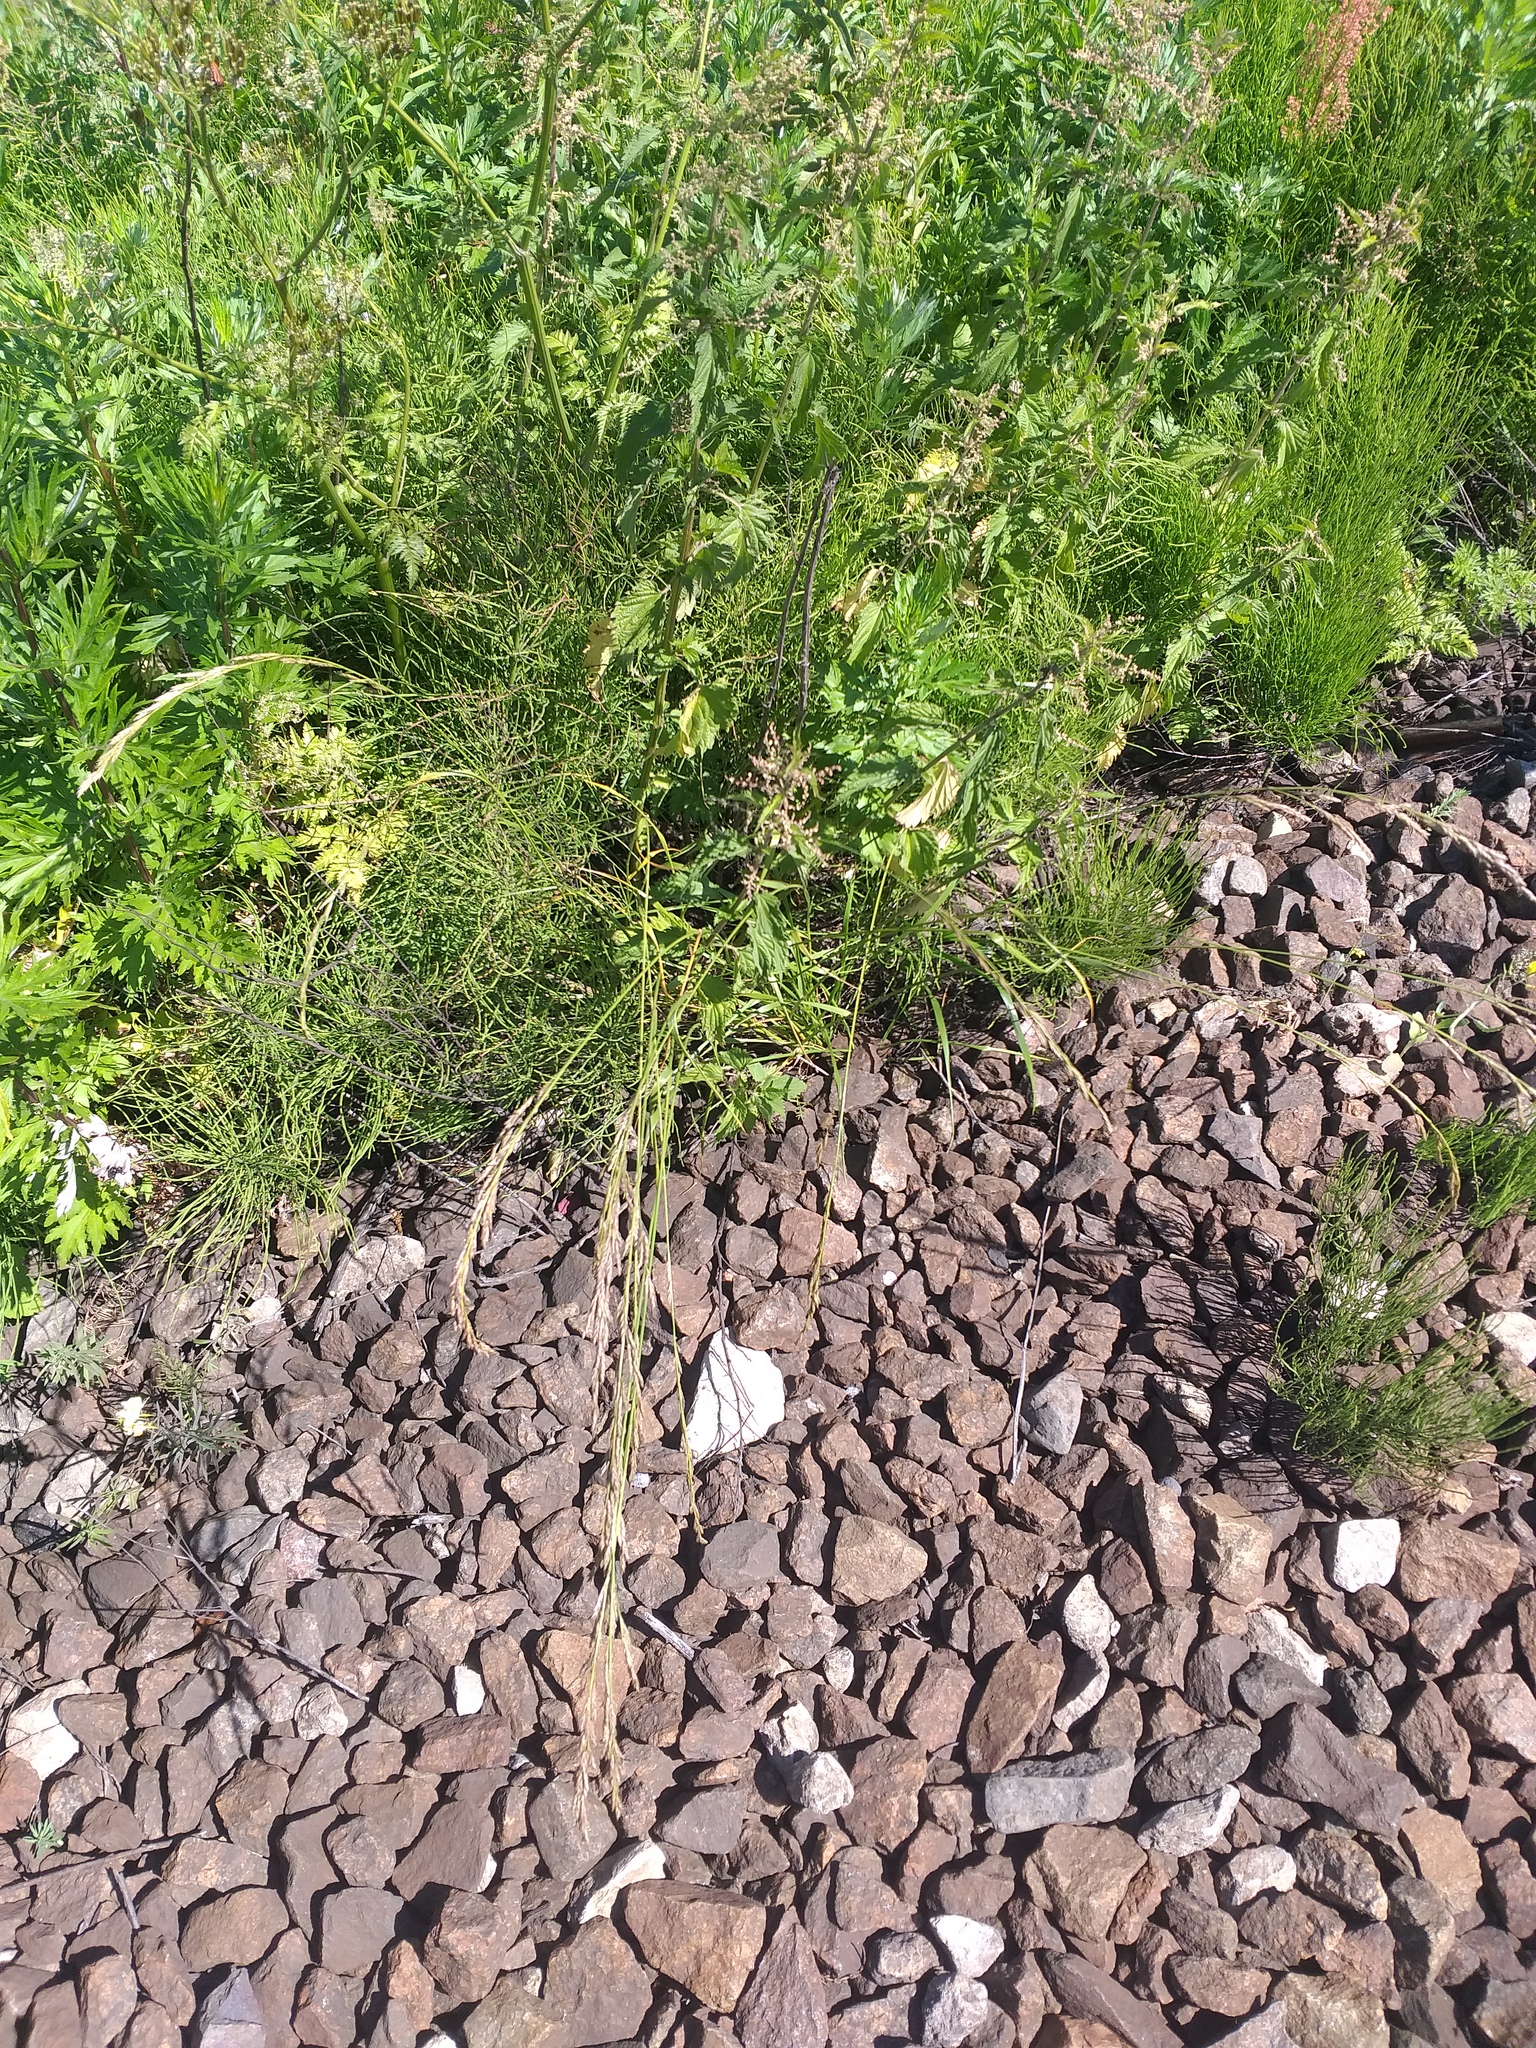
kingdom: Plantae
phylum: Tracheophyta
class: Liliopsida
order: Poales
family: Poaceae
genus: Lolium
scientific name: Lolium arundinaceum
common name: Reed fescue
